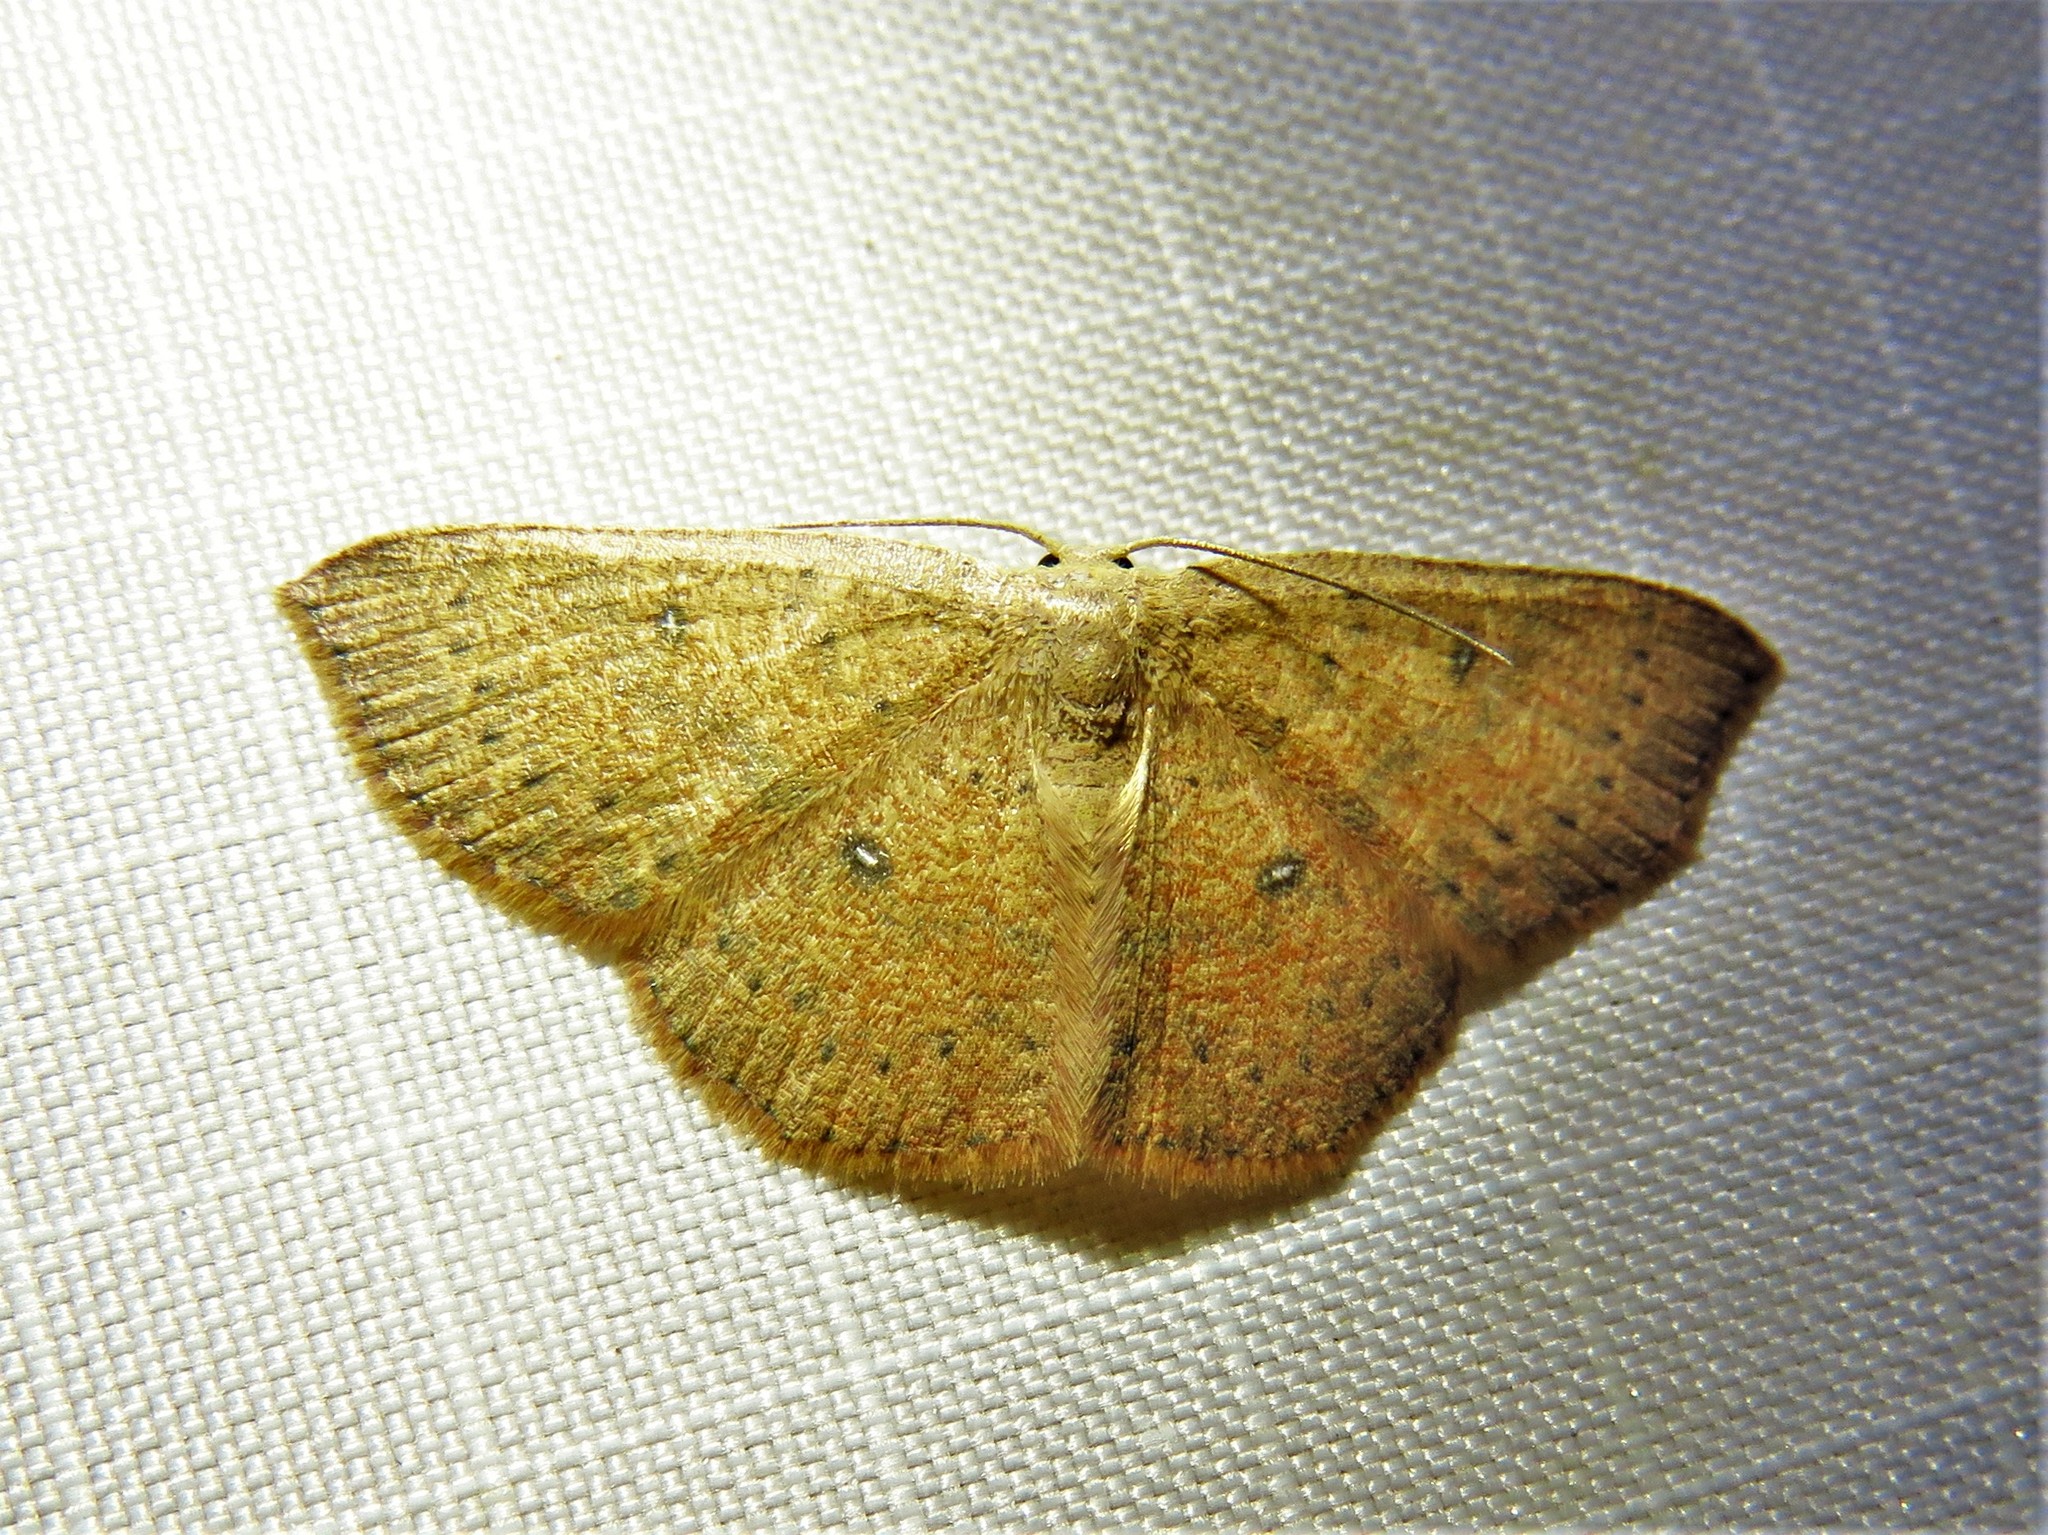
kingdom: Animalia
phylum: Arthropoda
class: Insecta
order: Lepidoptera
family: Geometridae
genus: Cyclophora
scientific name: Cyclophora packardi
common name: Packard's wave
